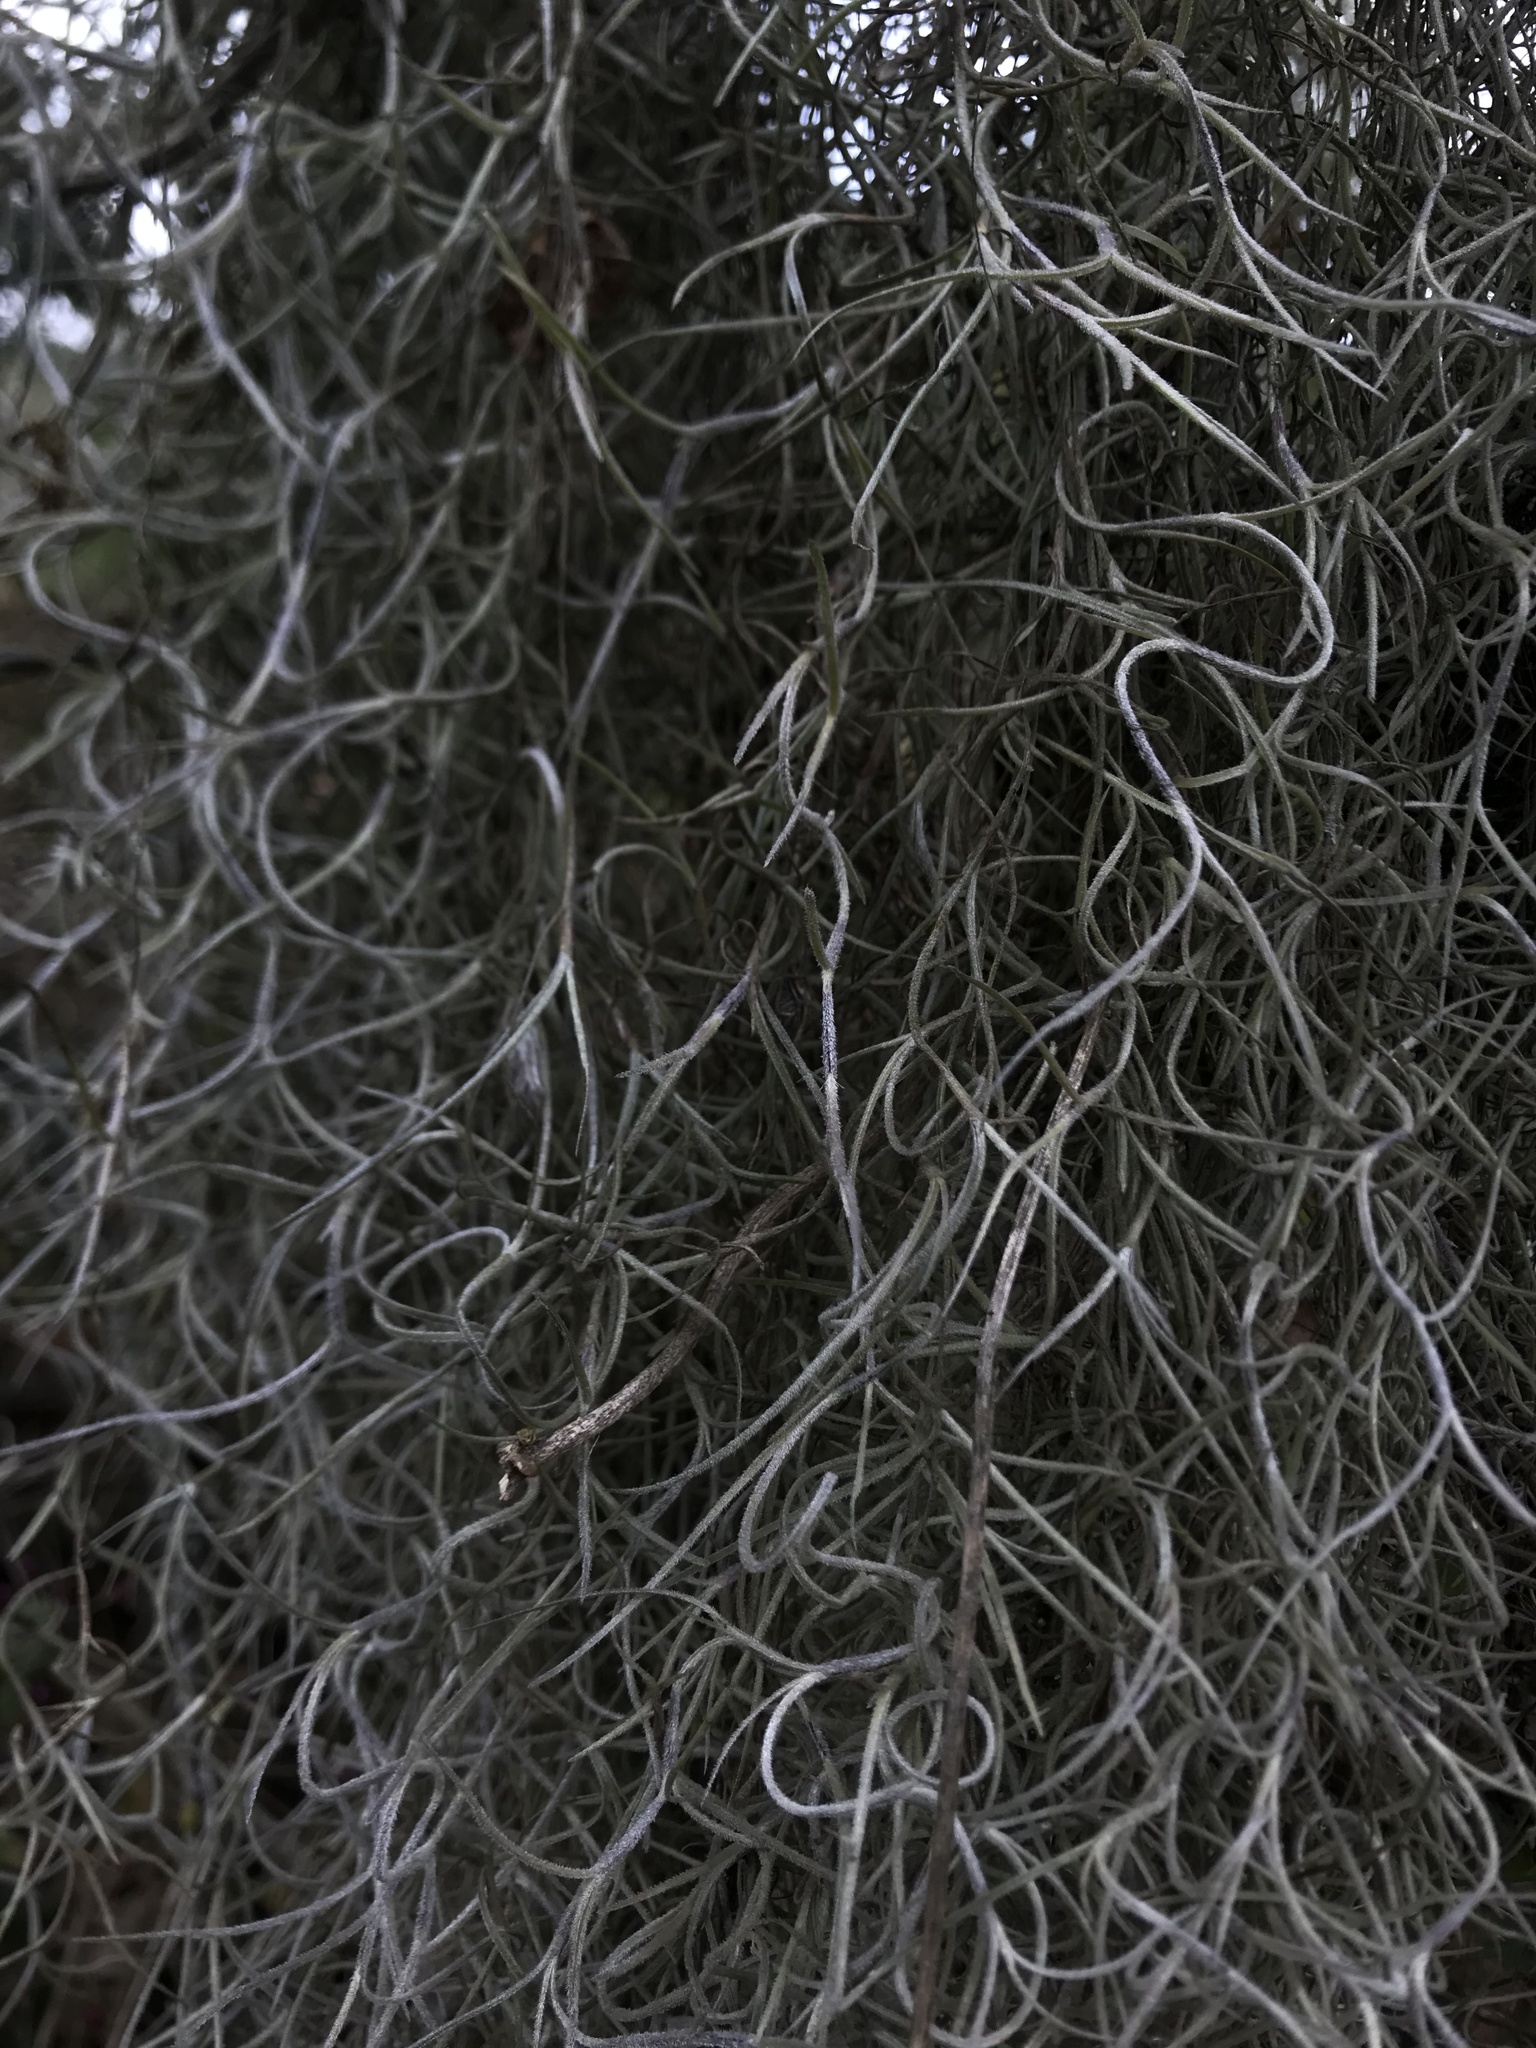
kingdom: Plantae
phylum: Tracheophyta
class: Liliopsida
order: Poales
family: Bromeliaceae
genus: Tillandsia
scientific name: Tillandsia usneoides
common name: Spanish moss
